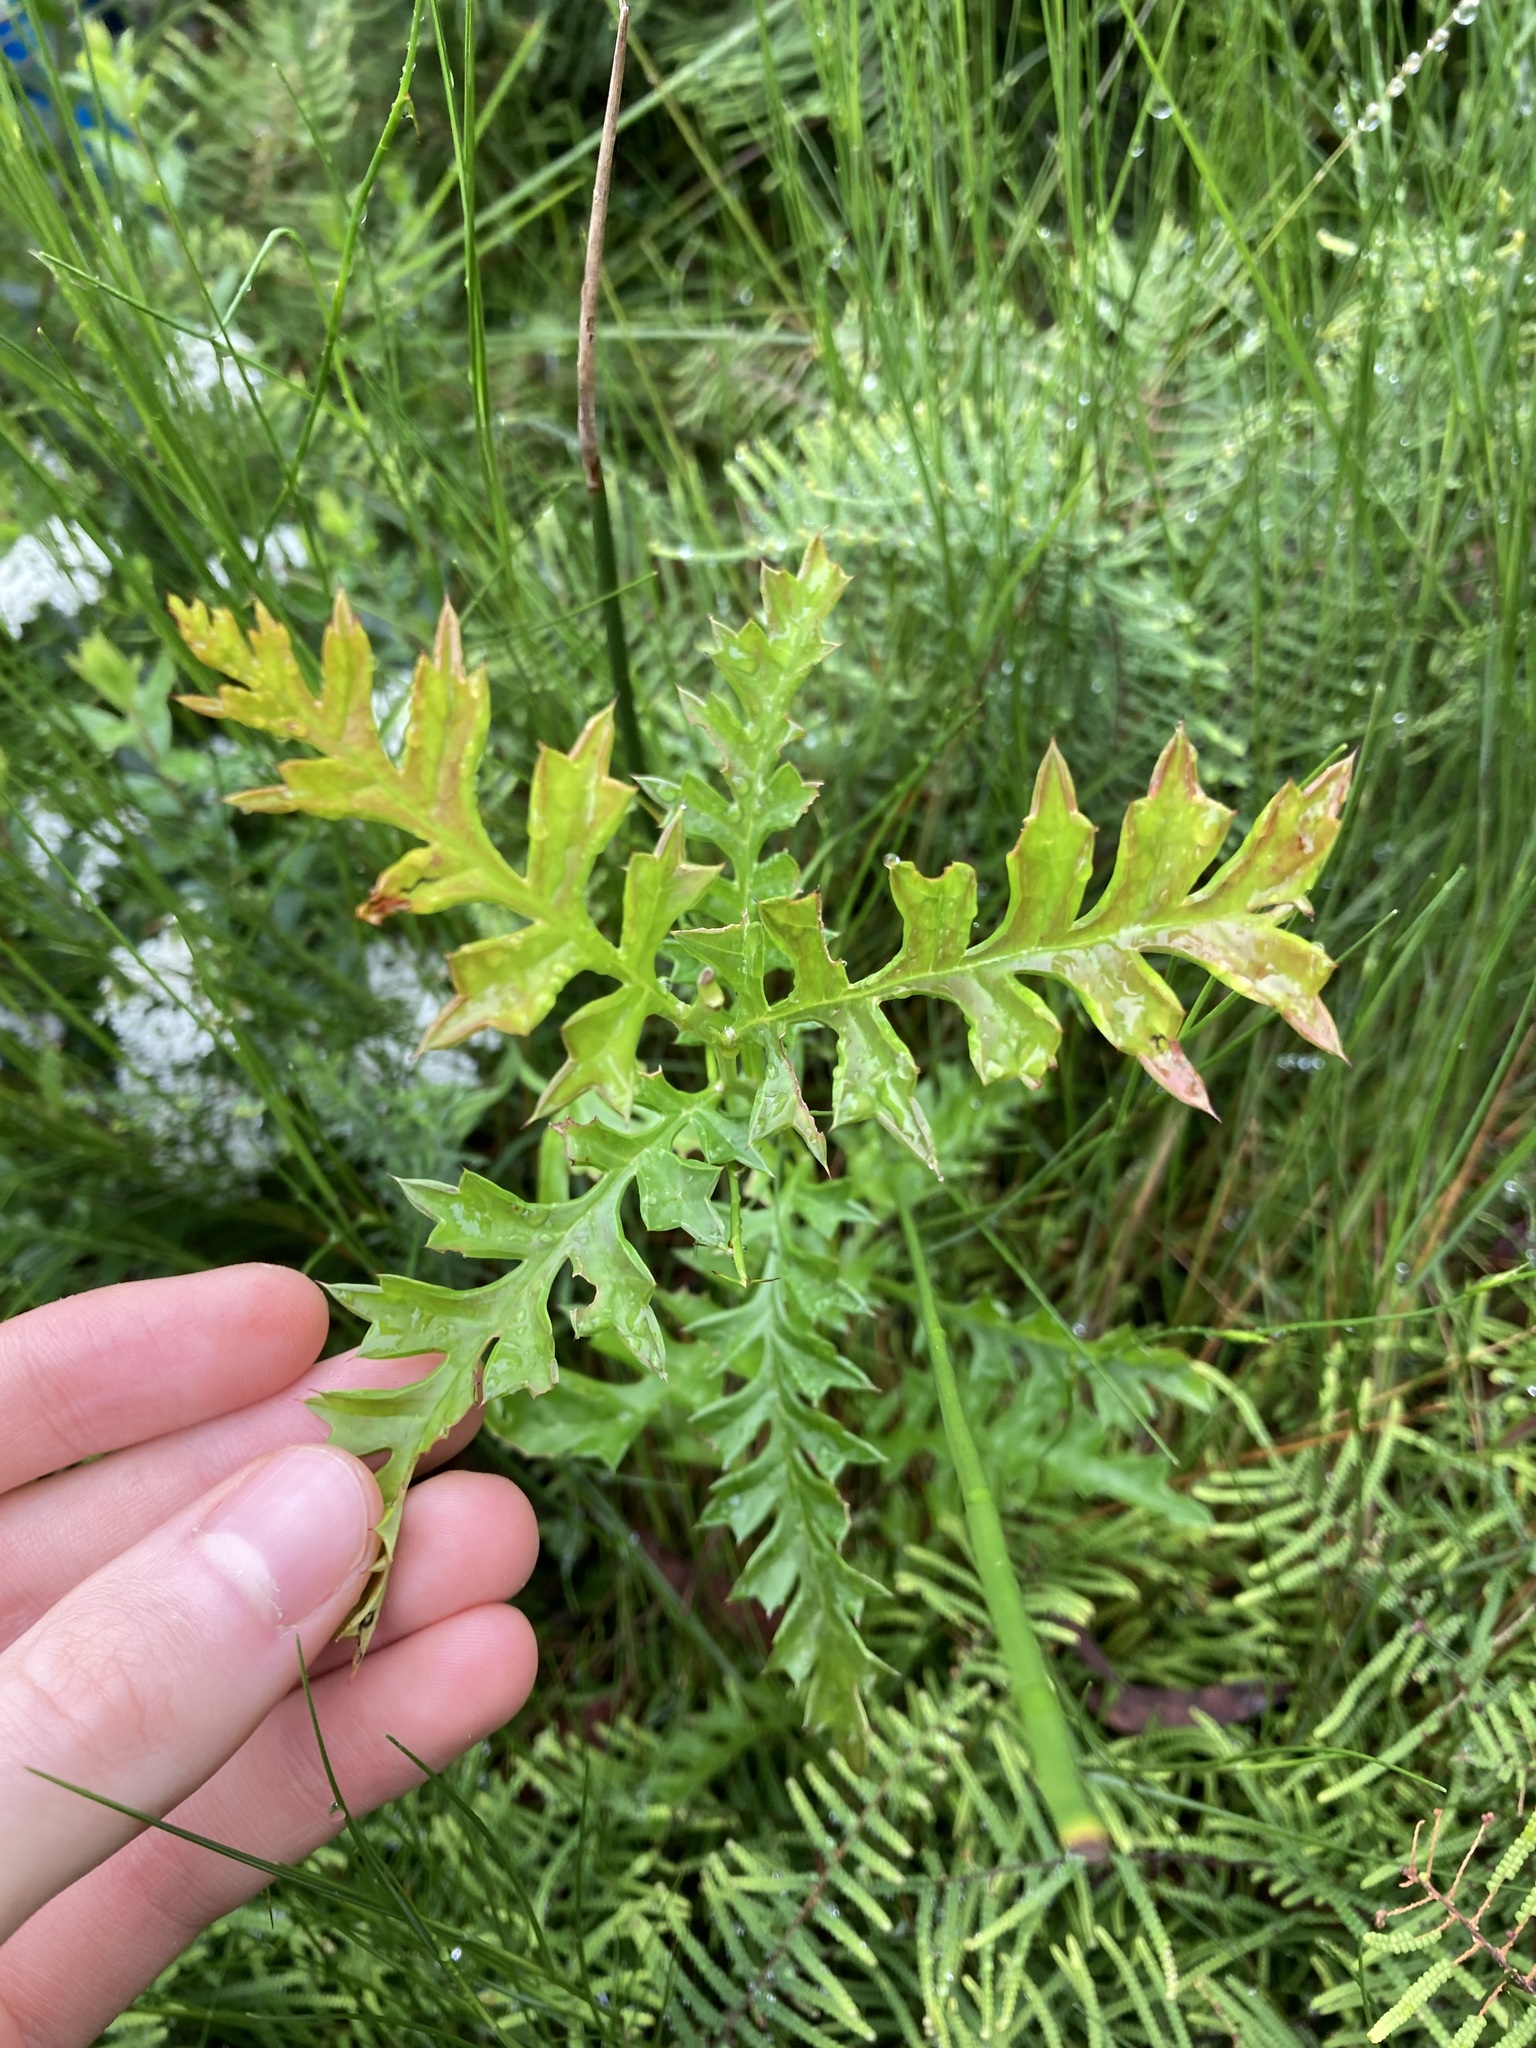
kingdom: Plantae
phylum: Tracheophyta
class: Magnoliopsida
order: Proteales
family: Proteaceae
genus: Grevillea
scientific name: Grevillea acanthifolia
